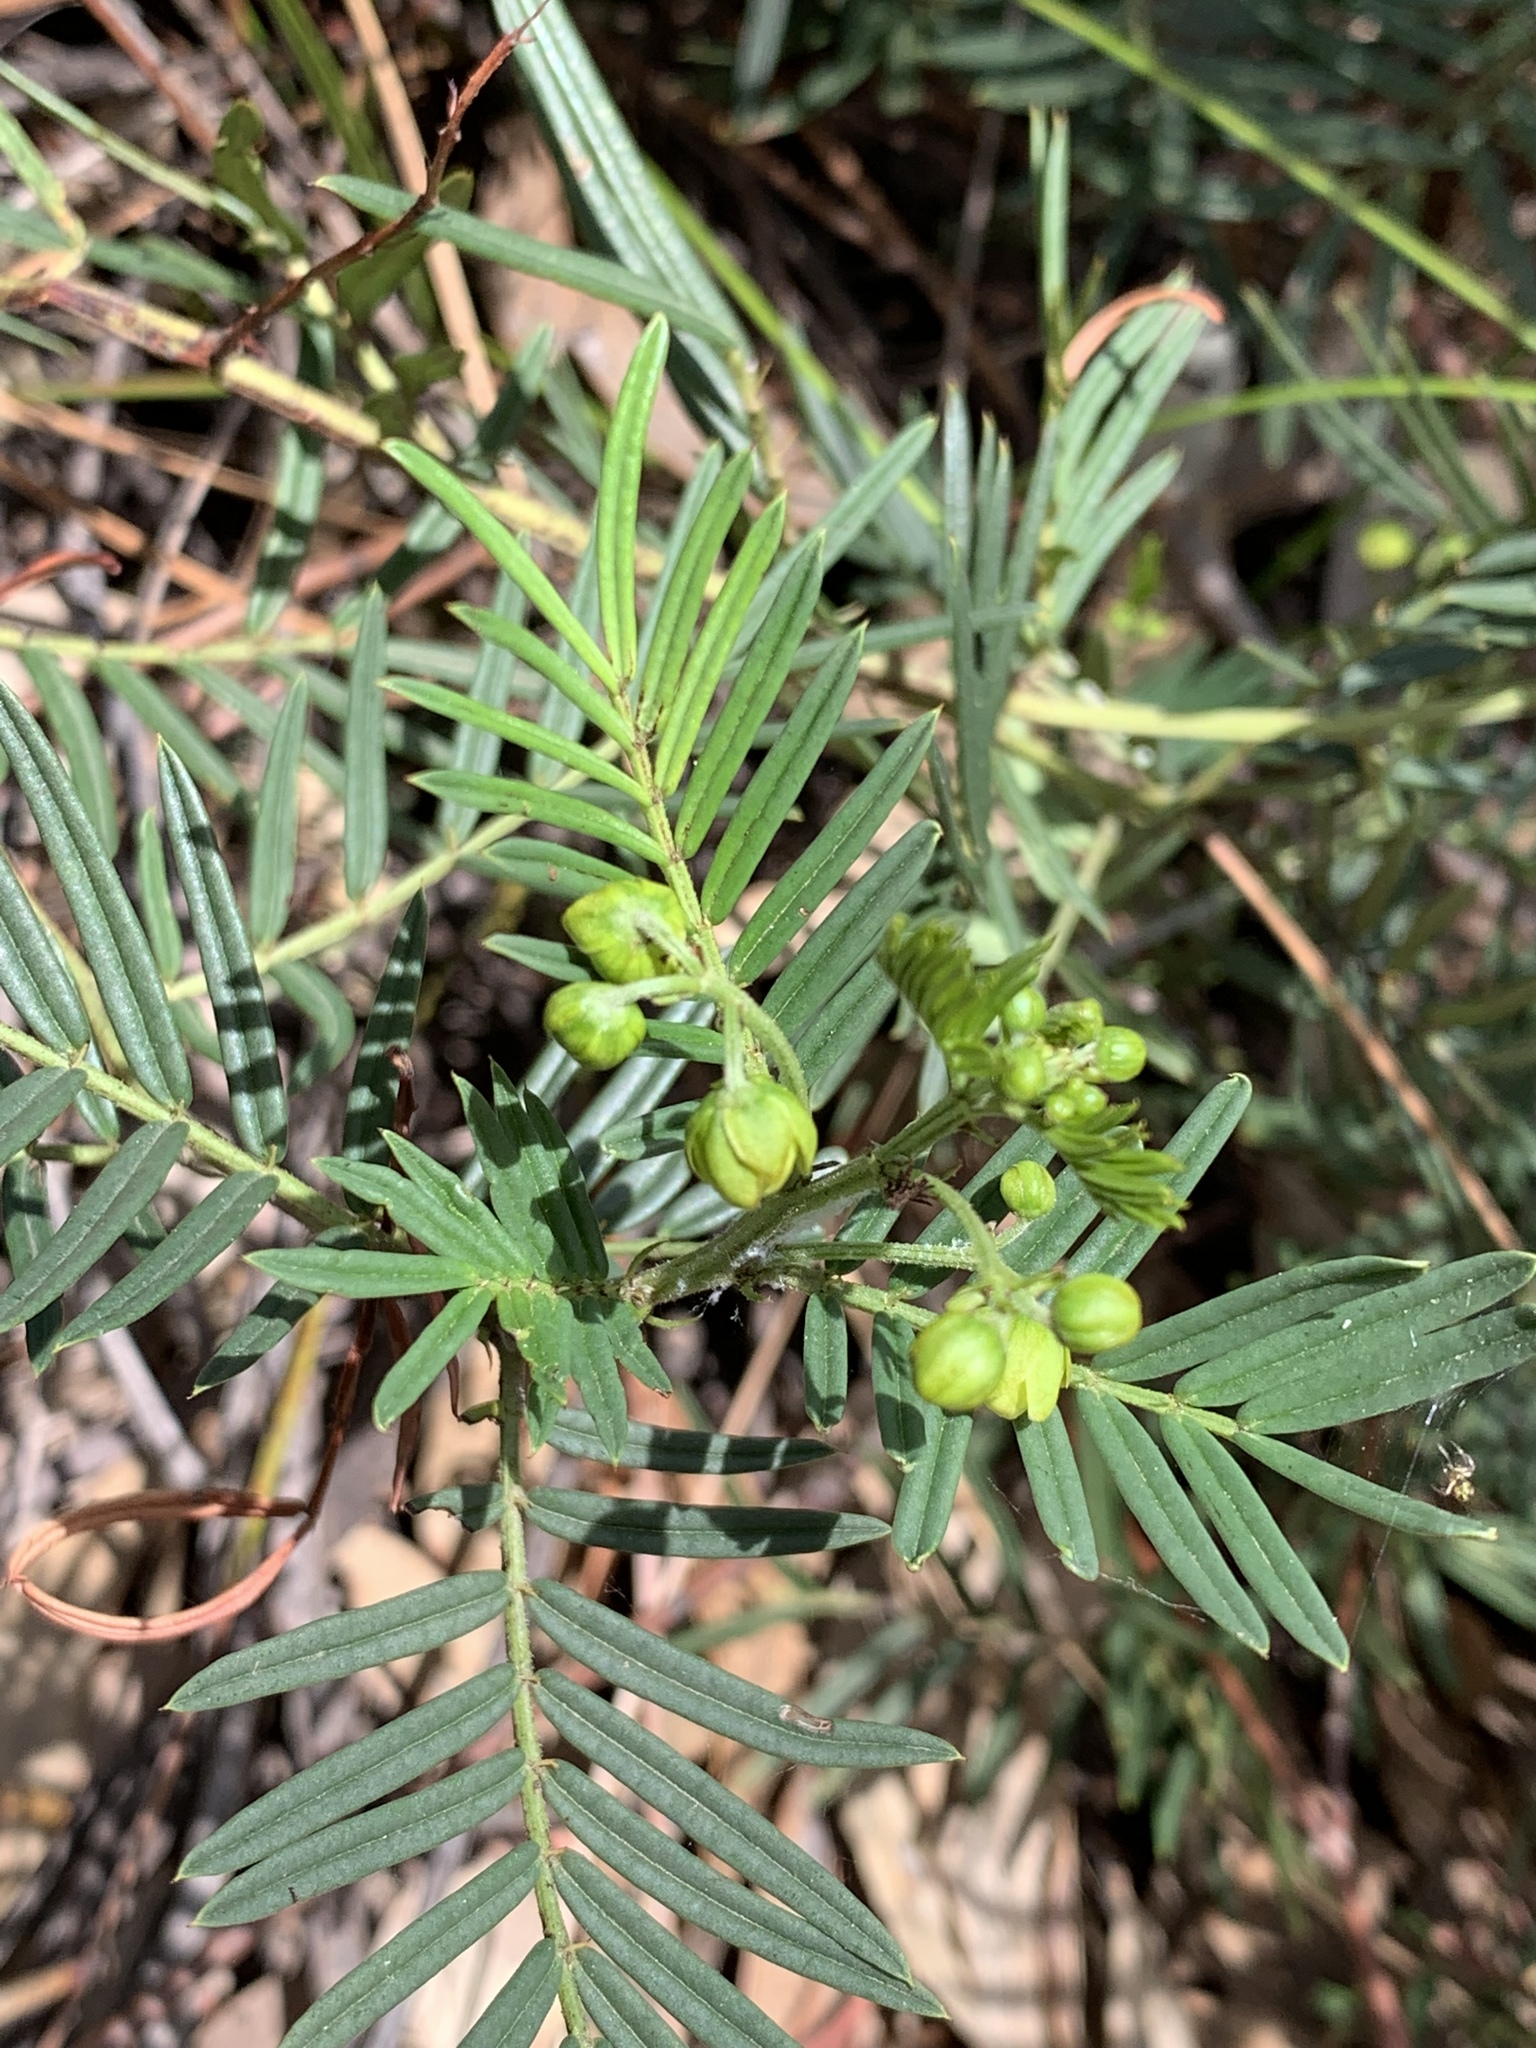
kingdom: Plantae
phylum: Tracheophyta
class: Magnoliopsida
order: Fabales
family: Fabaceae
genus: Senna
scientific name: Senna aciphylla
